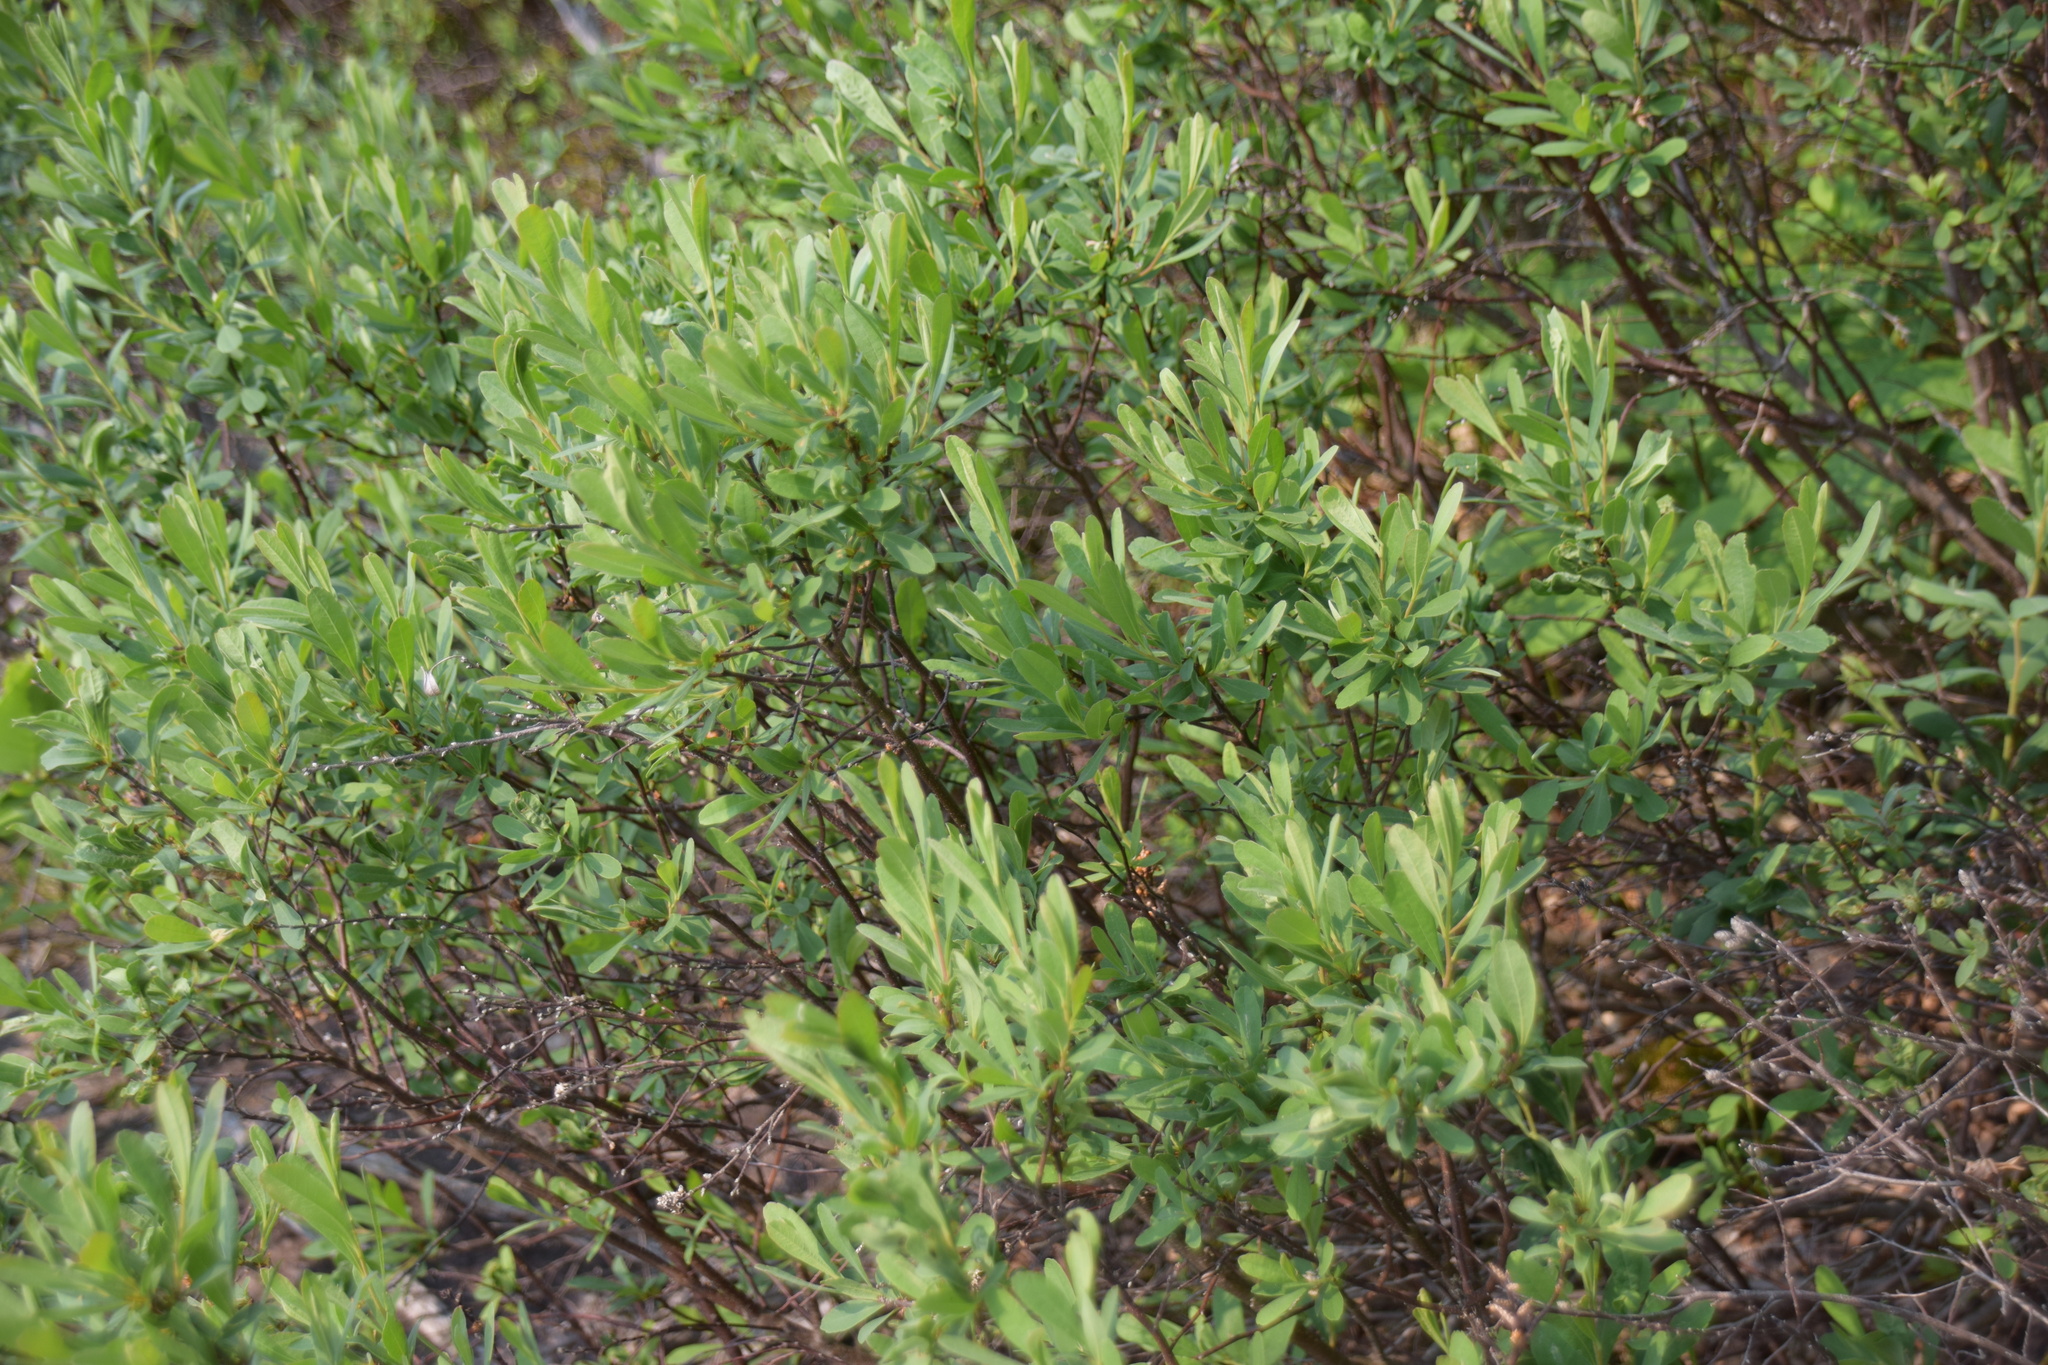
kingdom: Plantae
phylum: Tracheophyta
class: Magnoliopsida
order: Fagales
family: Myricaceae
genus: Myrica
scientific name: Myrica gale
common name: Sweet gale
